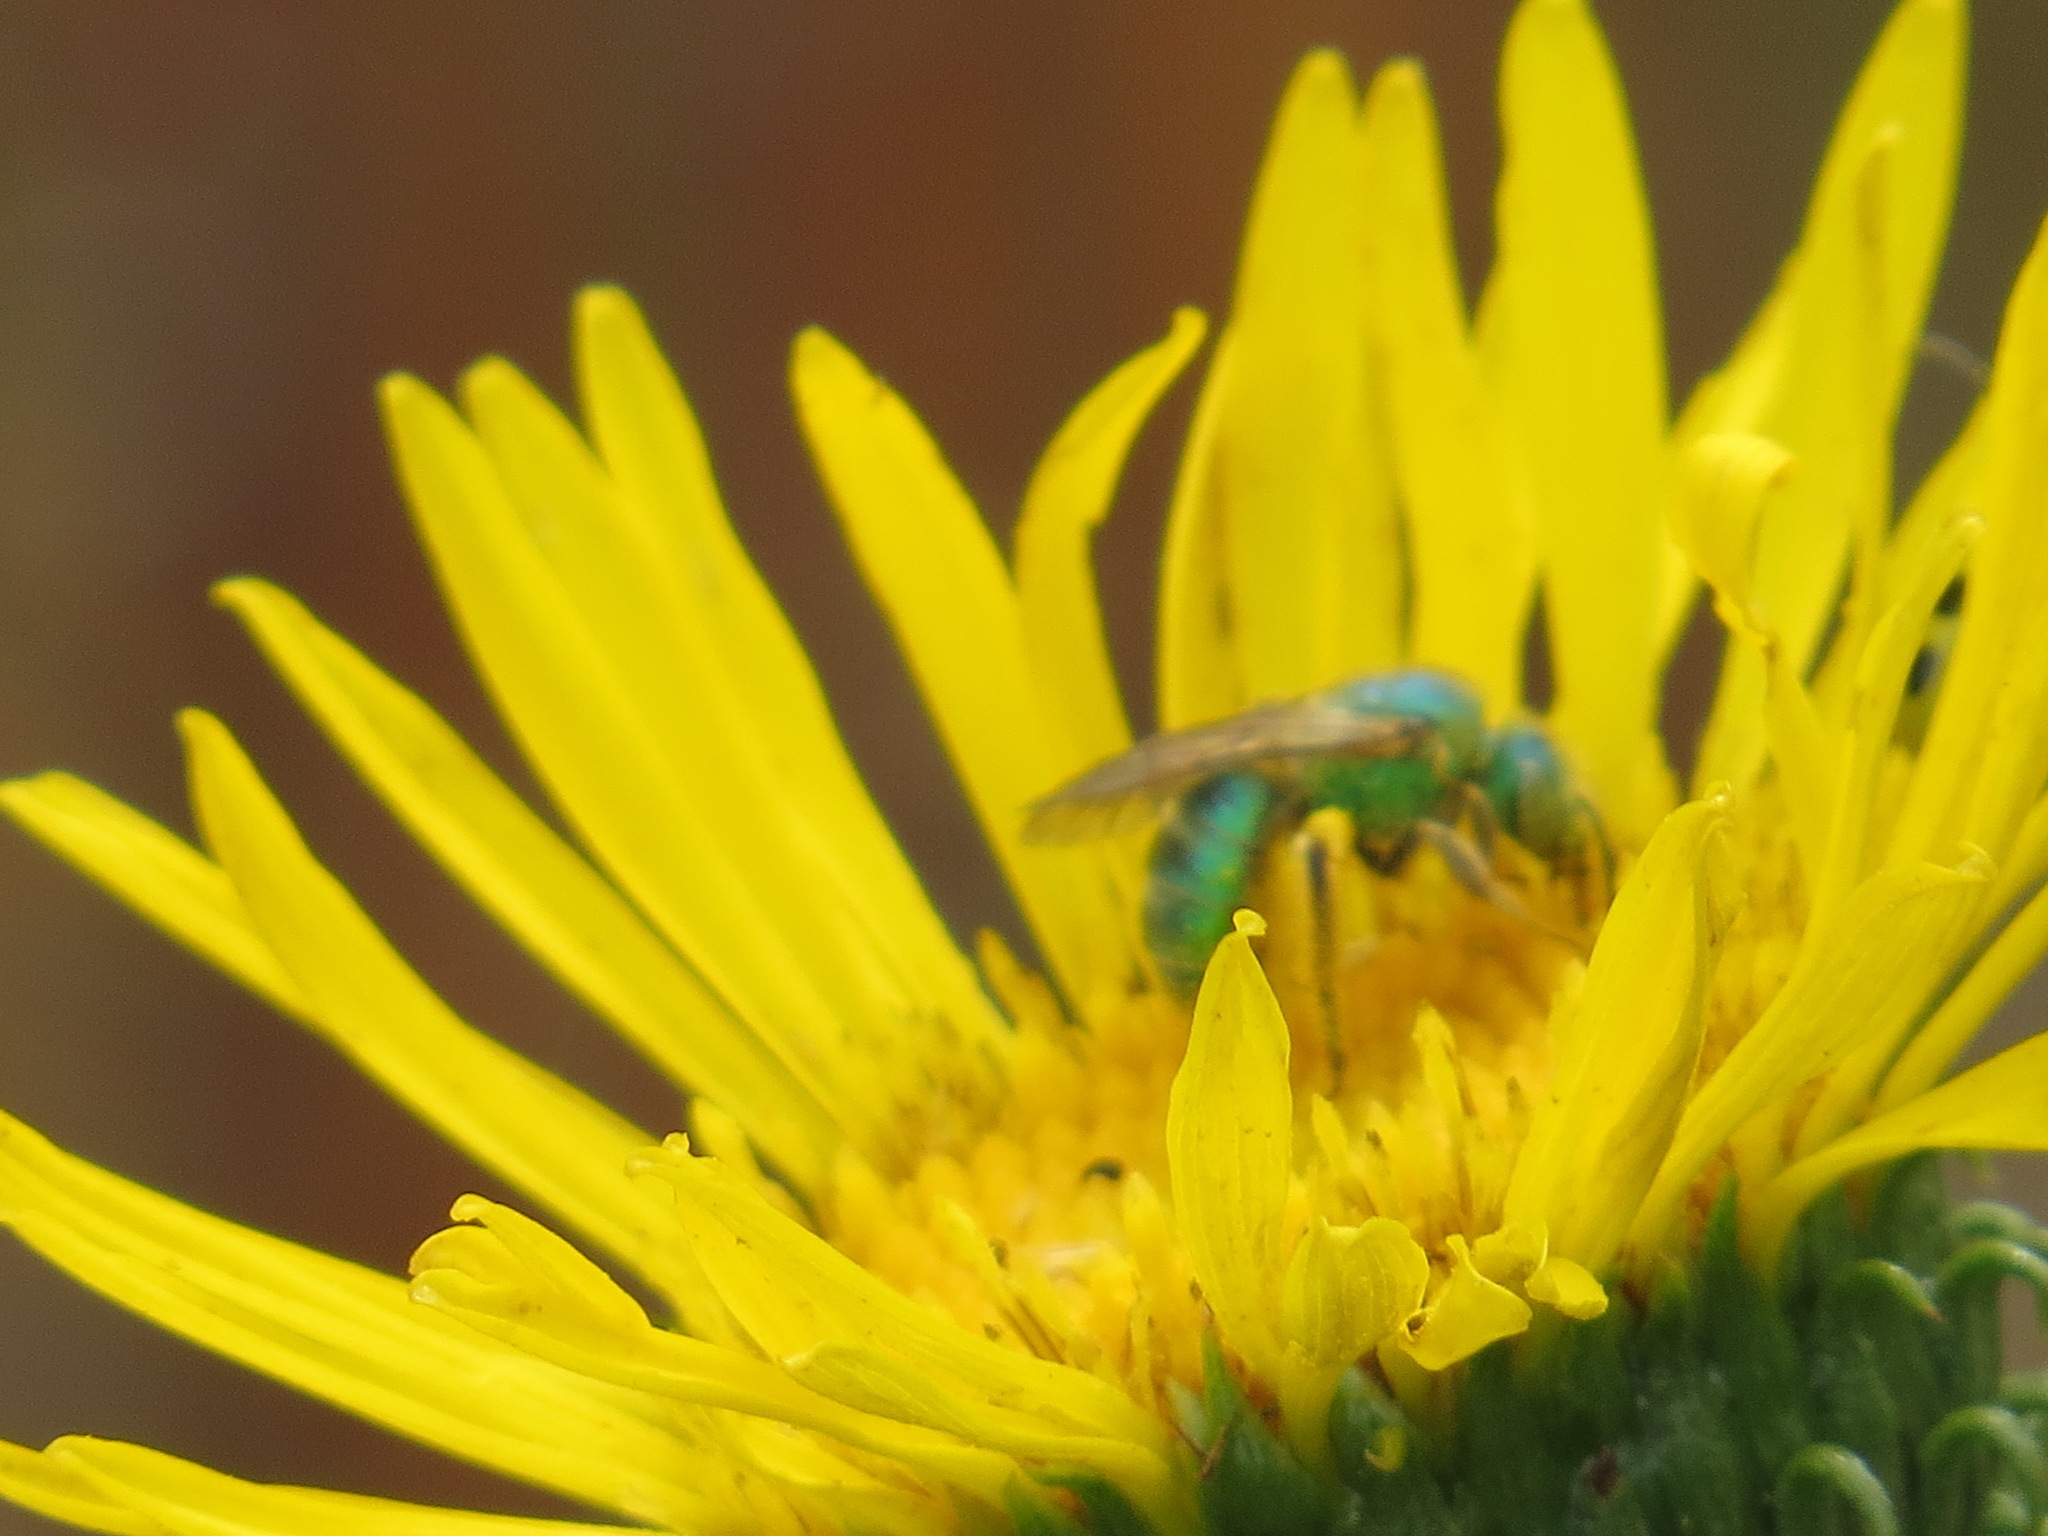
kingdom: Animalia
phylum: Arthropoda
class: Insecta
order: Hymenoptera
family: Halictidae
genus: Agapostemon
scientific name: Agapostemon texanus
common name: Texas striped sweat bee
